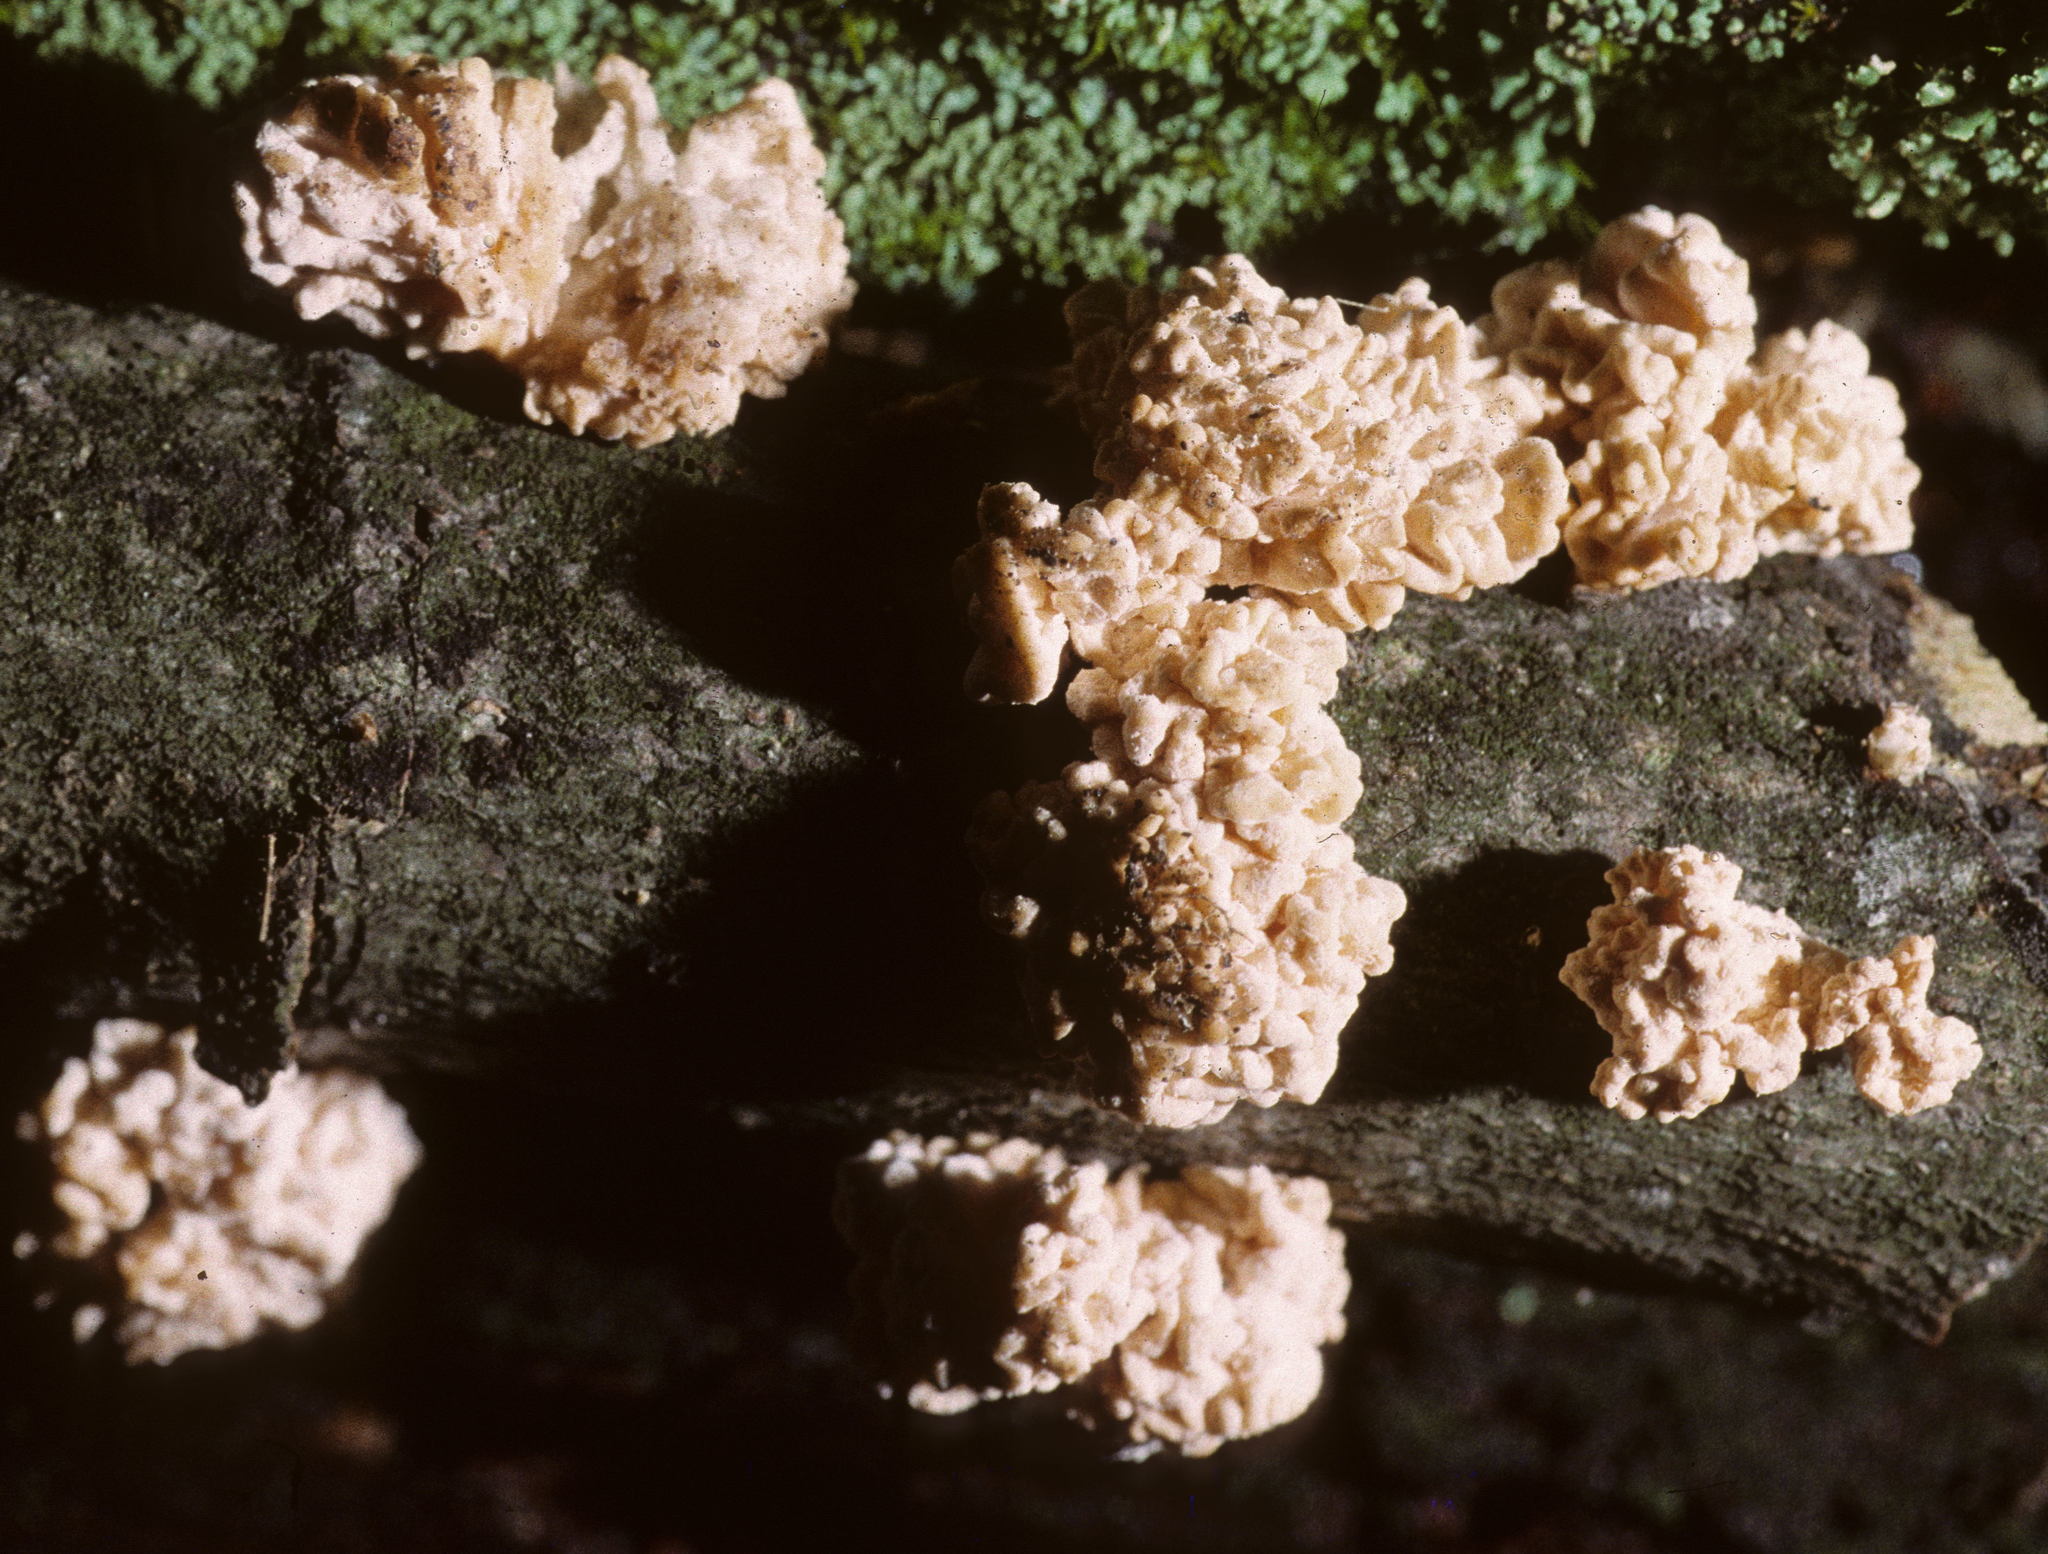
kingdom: Fungi
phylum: Ascomycota
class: Sordariomycetes
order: Xylariales
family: Xylariaceae
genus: Xylaria
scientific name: Xylaria cubensis
